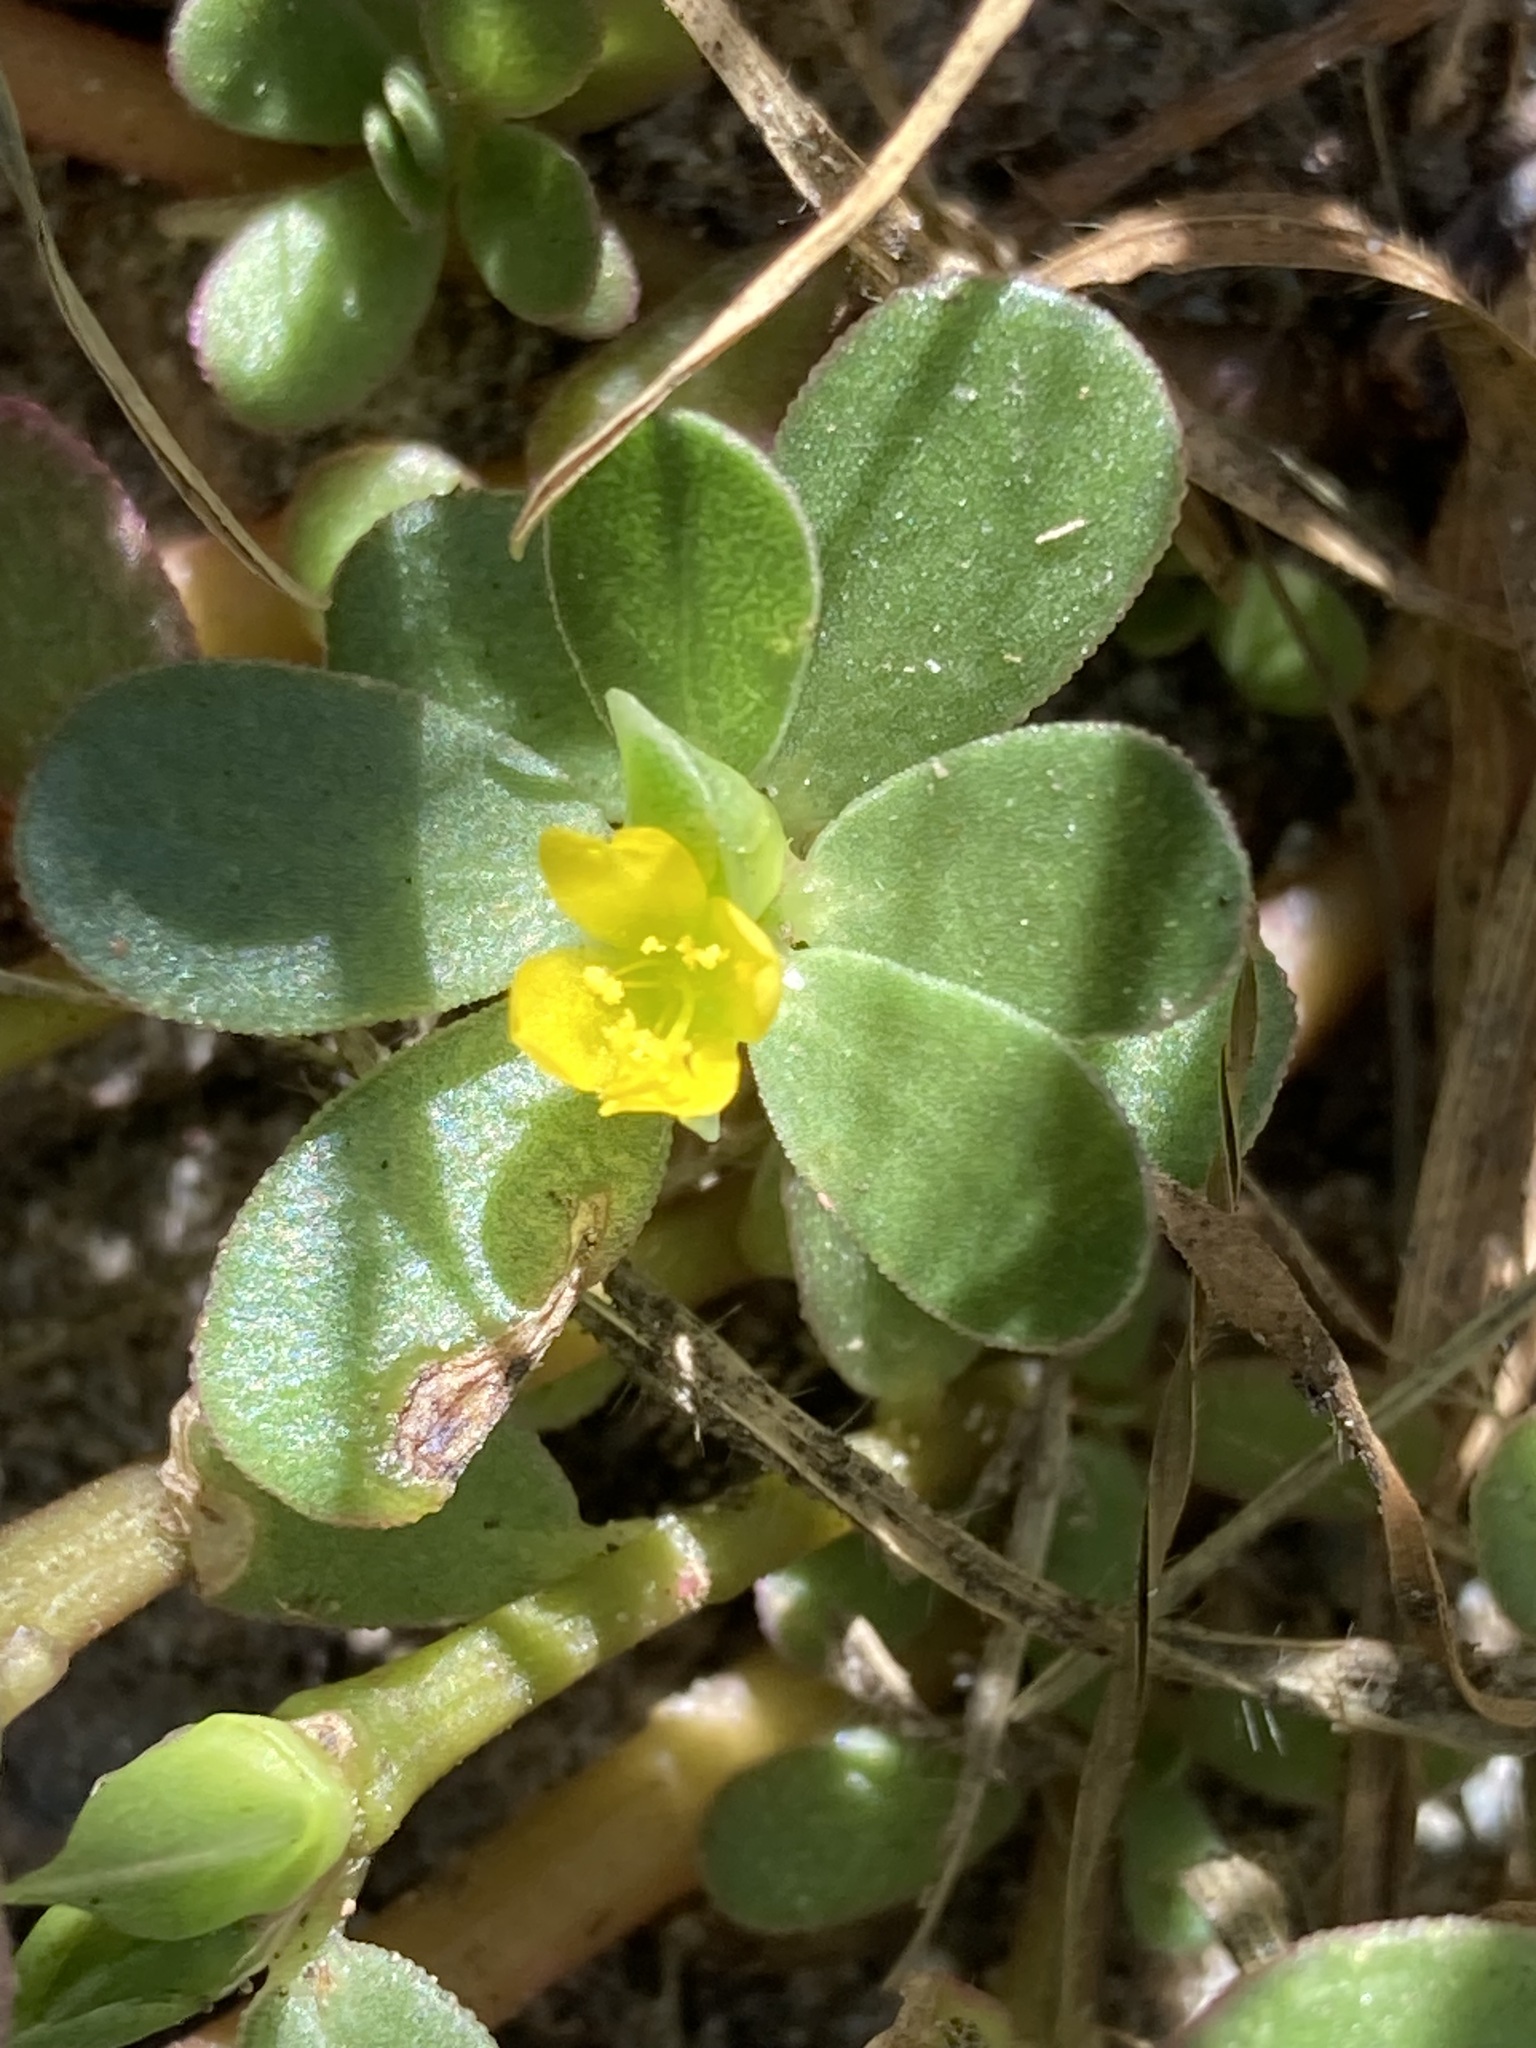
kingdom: Plantae
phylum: Tracheophyta
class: Magnoliopsida
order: Caryophyllales
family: Portulacaceae
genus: Portulaca
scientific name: Portulaca oleracea
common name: Common purslane
